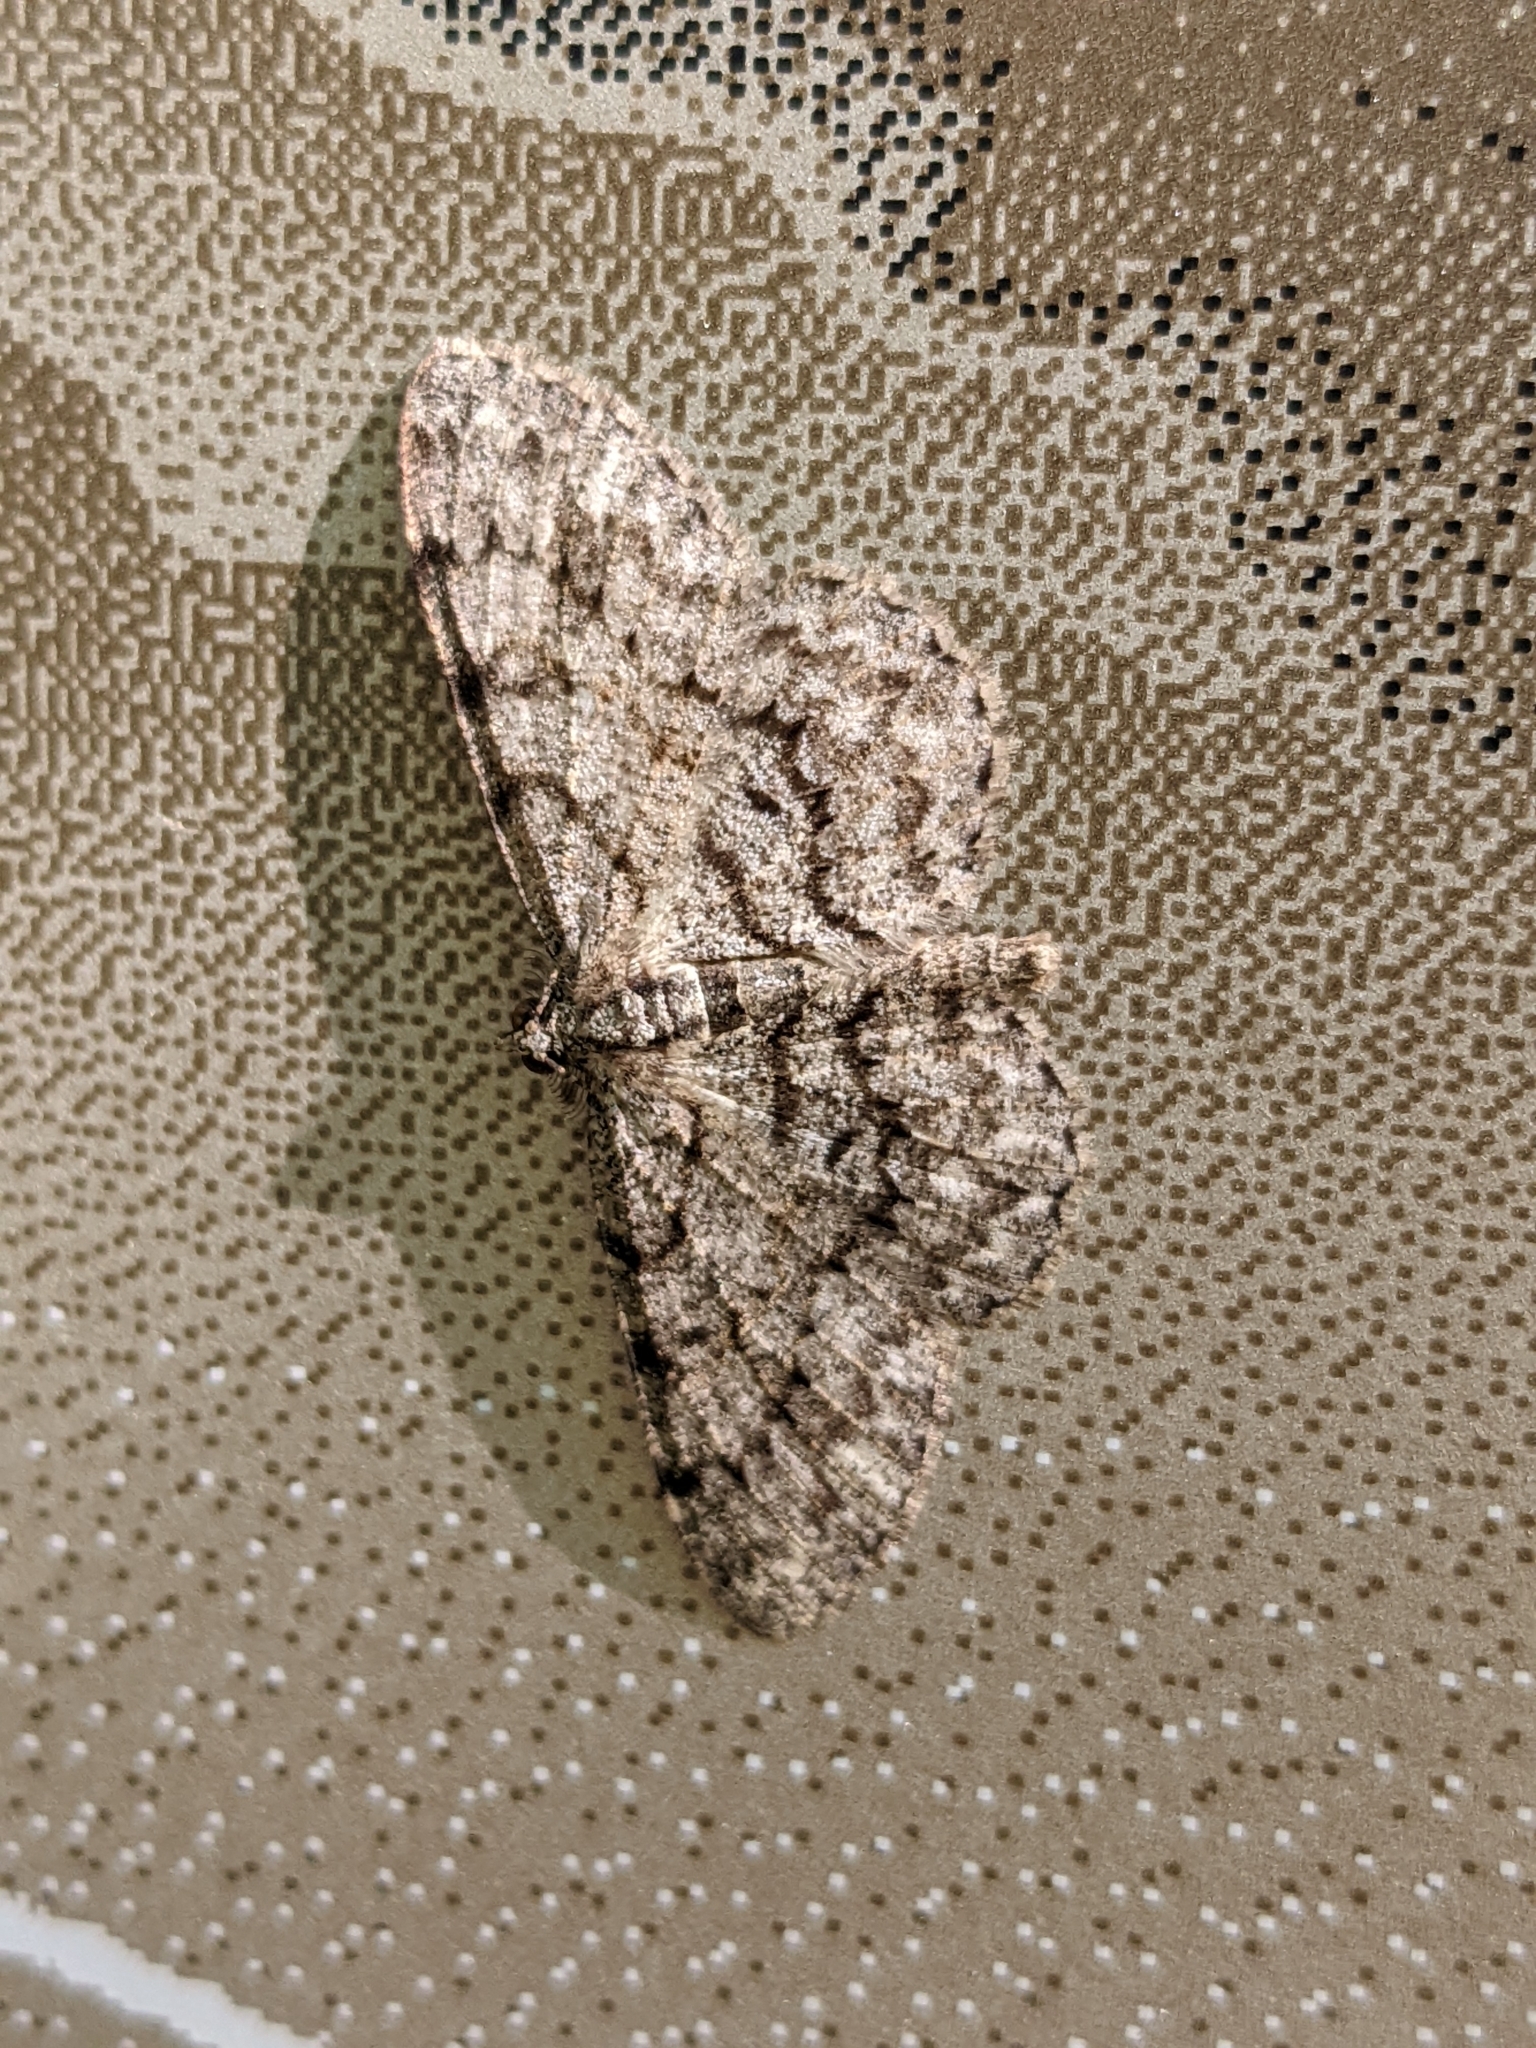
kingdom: Animalia
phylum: Arthropoda
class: Insecta
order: Lepidoptera
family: Geometridae
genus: Protoboarmia
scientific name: Protoboarmia porcelaria
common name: Porcelain gray
